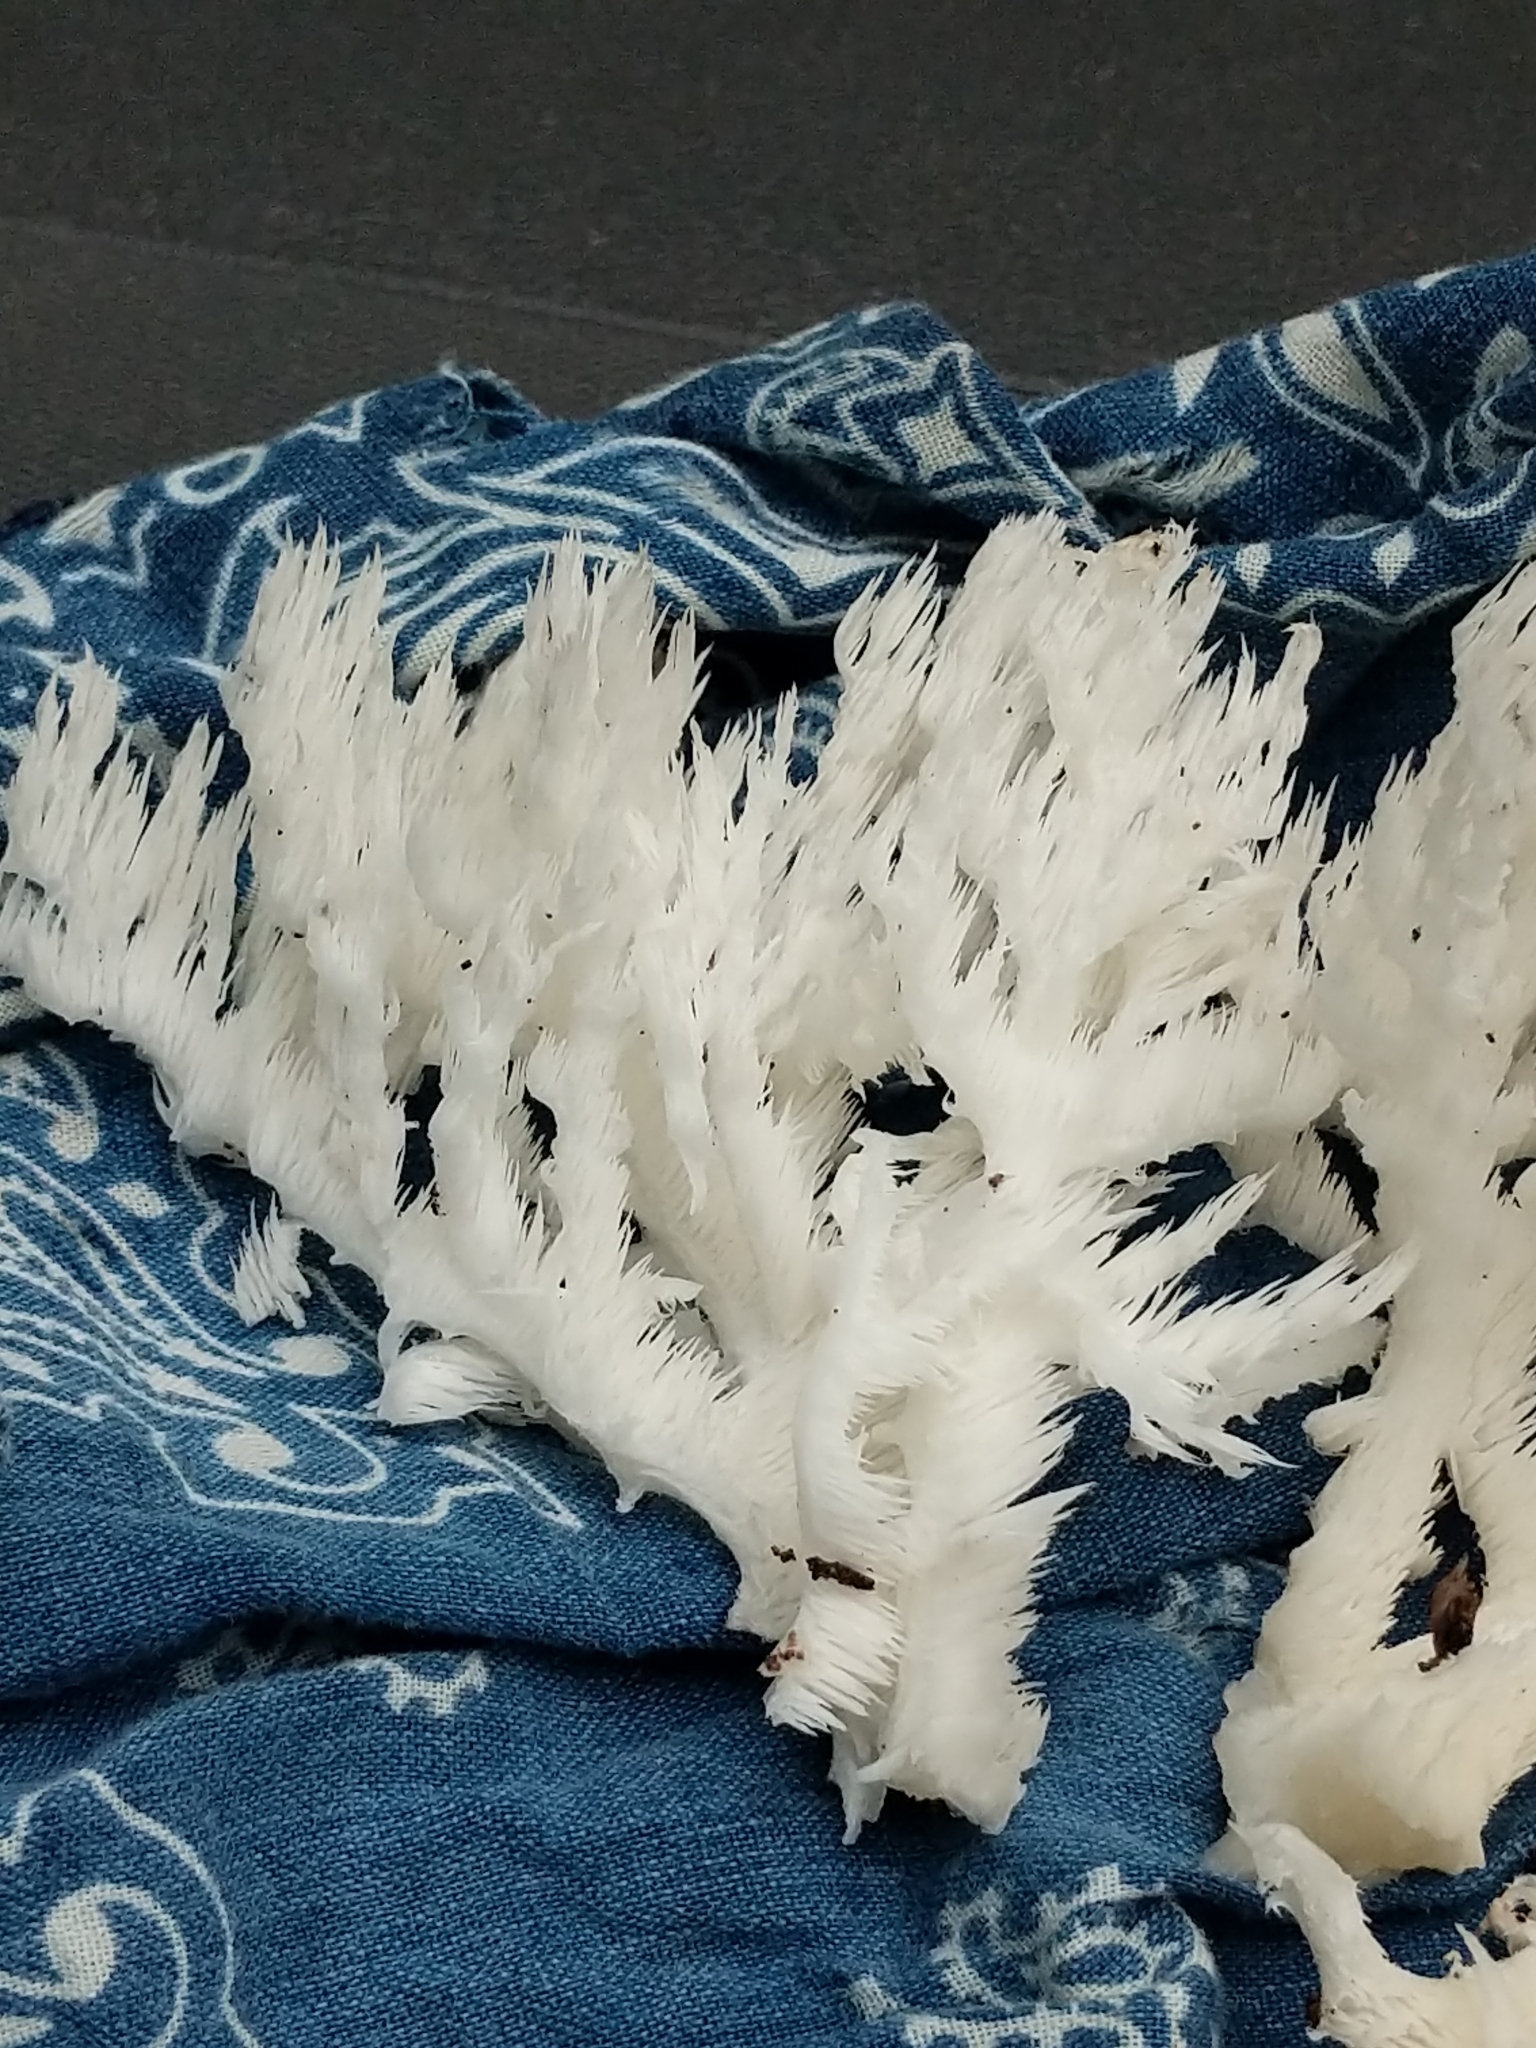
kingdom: Fungi
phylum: Basidiomycota
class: Agaricomycetes
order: Russulales
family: Hericiaceae
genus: Hericium
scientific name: Hericium coralloides
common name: Coral tooth
